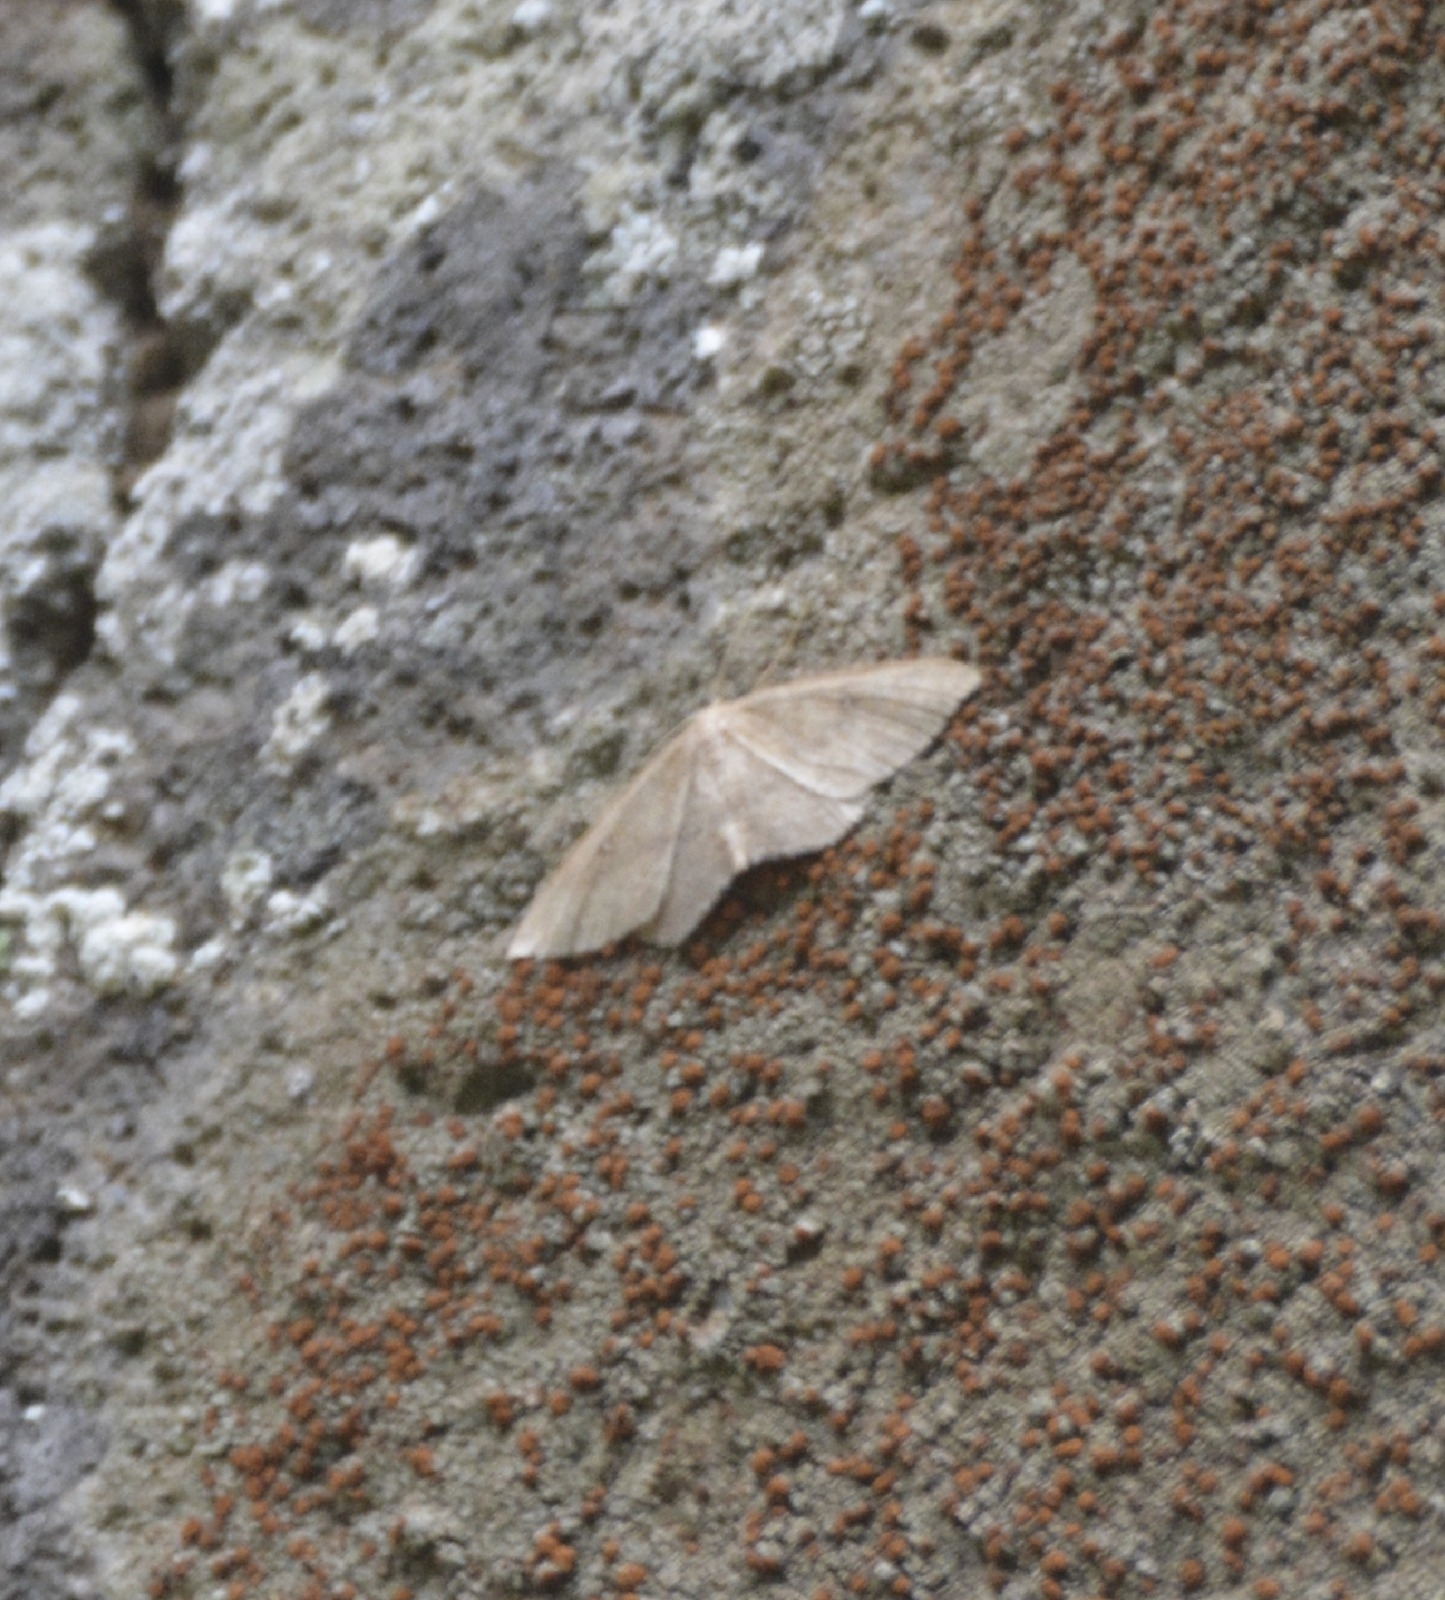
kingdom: Animalia
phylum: Arthropoda
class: Insecta
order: Lepidoptera
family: Geometridae
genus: Cyclophora
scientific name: Cyclophora maderensis
